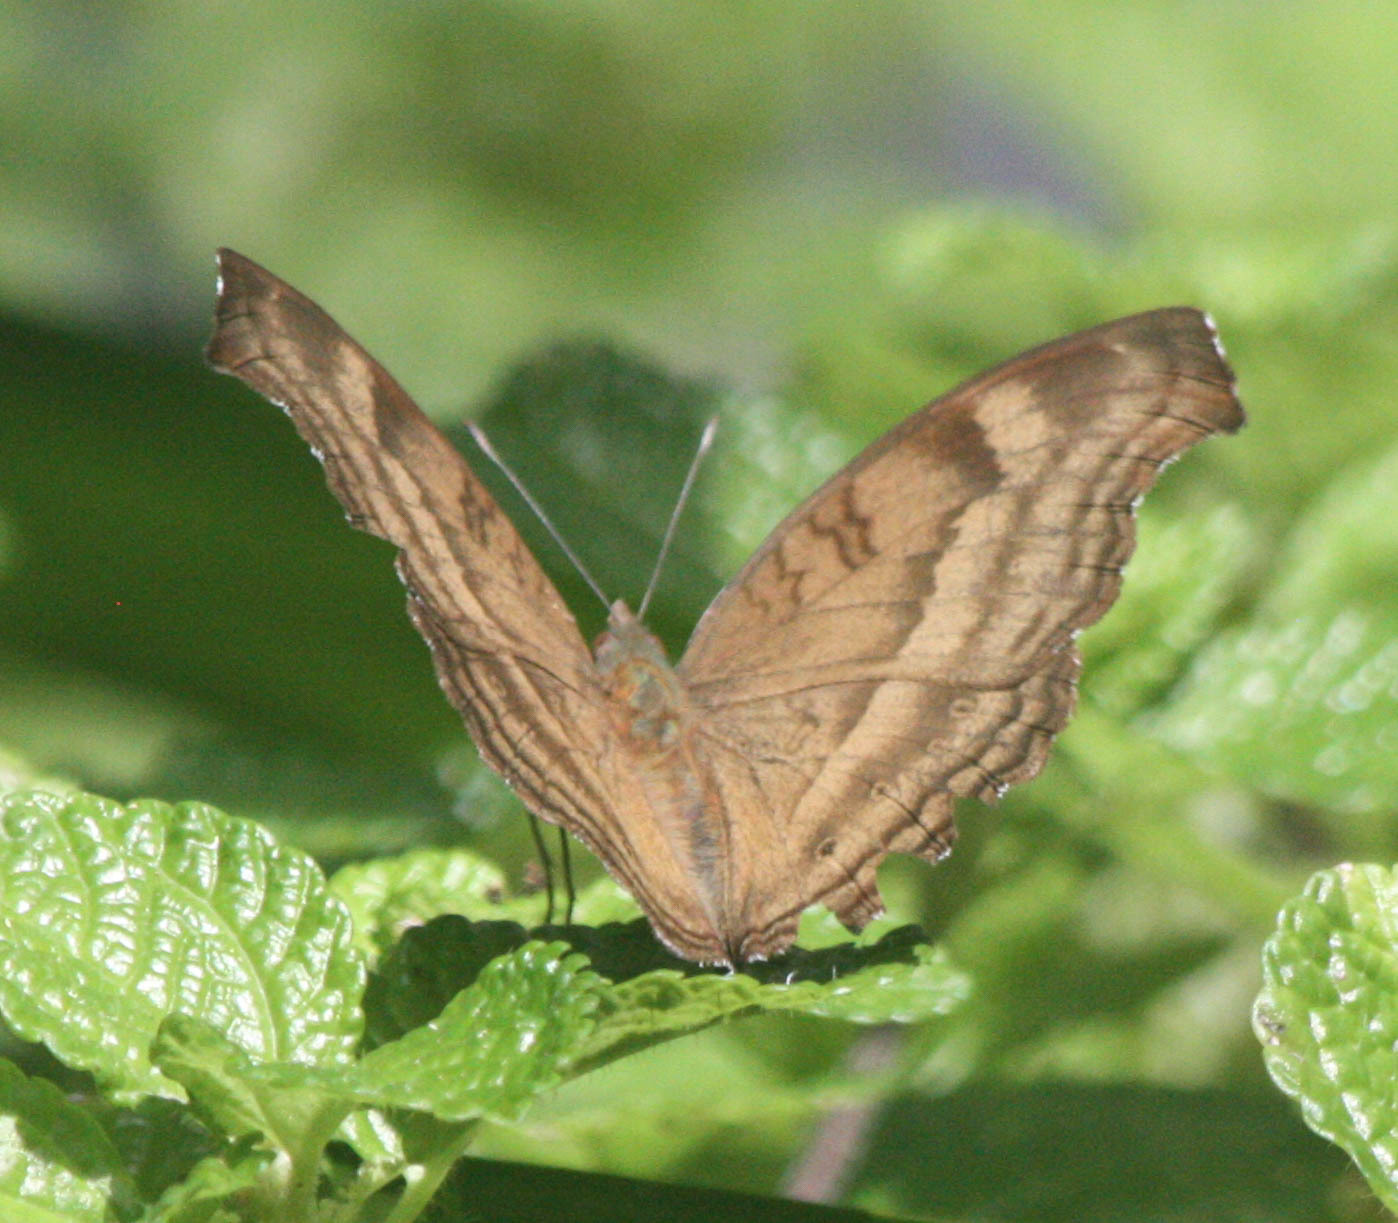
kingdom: Animalia
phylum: Arthropoda
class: Insecta
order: Lepidoptera
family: Nymphalidae
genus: Junonia
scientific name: Junonia iphita
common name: Chocolate pansy
